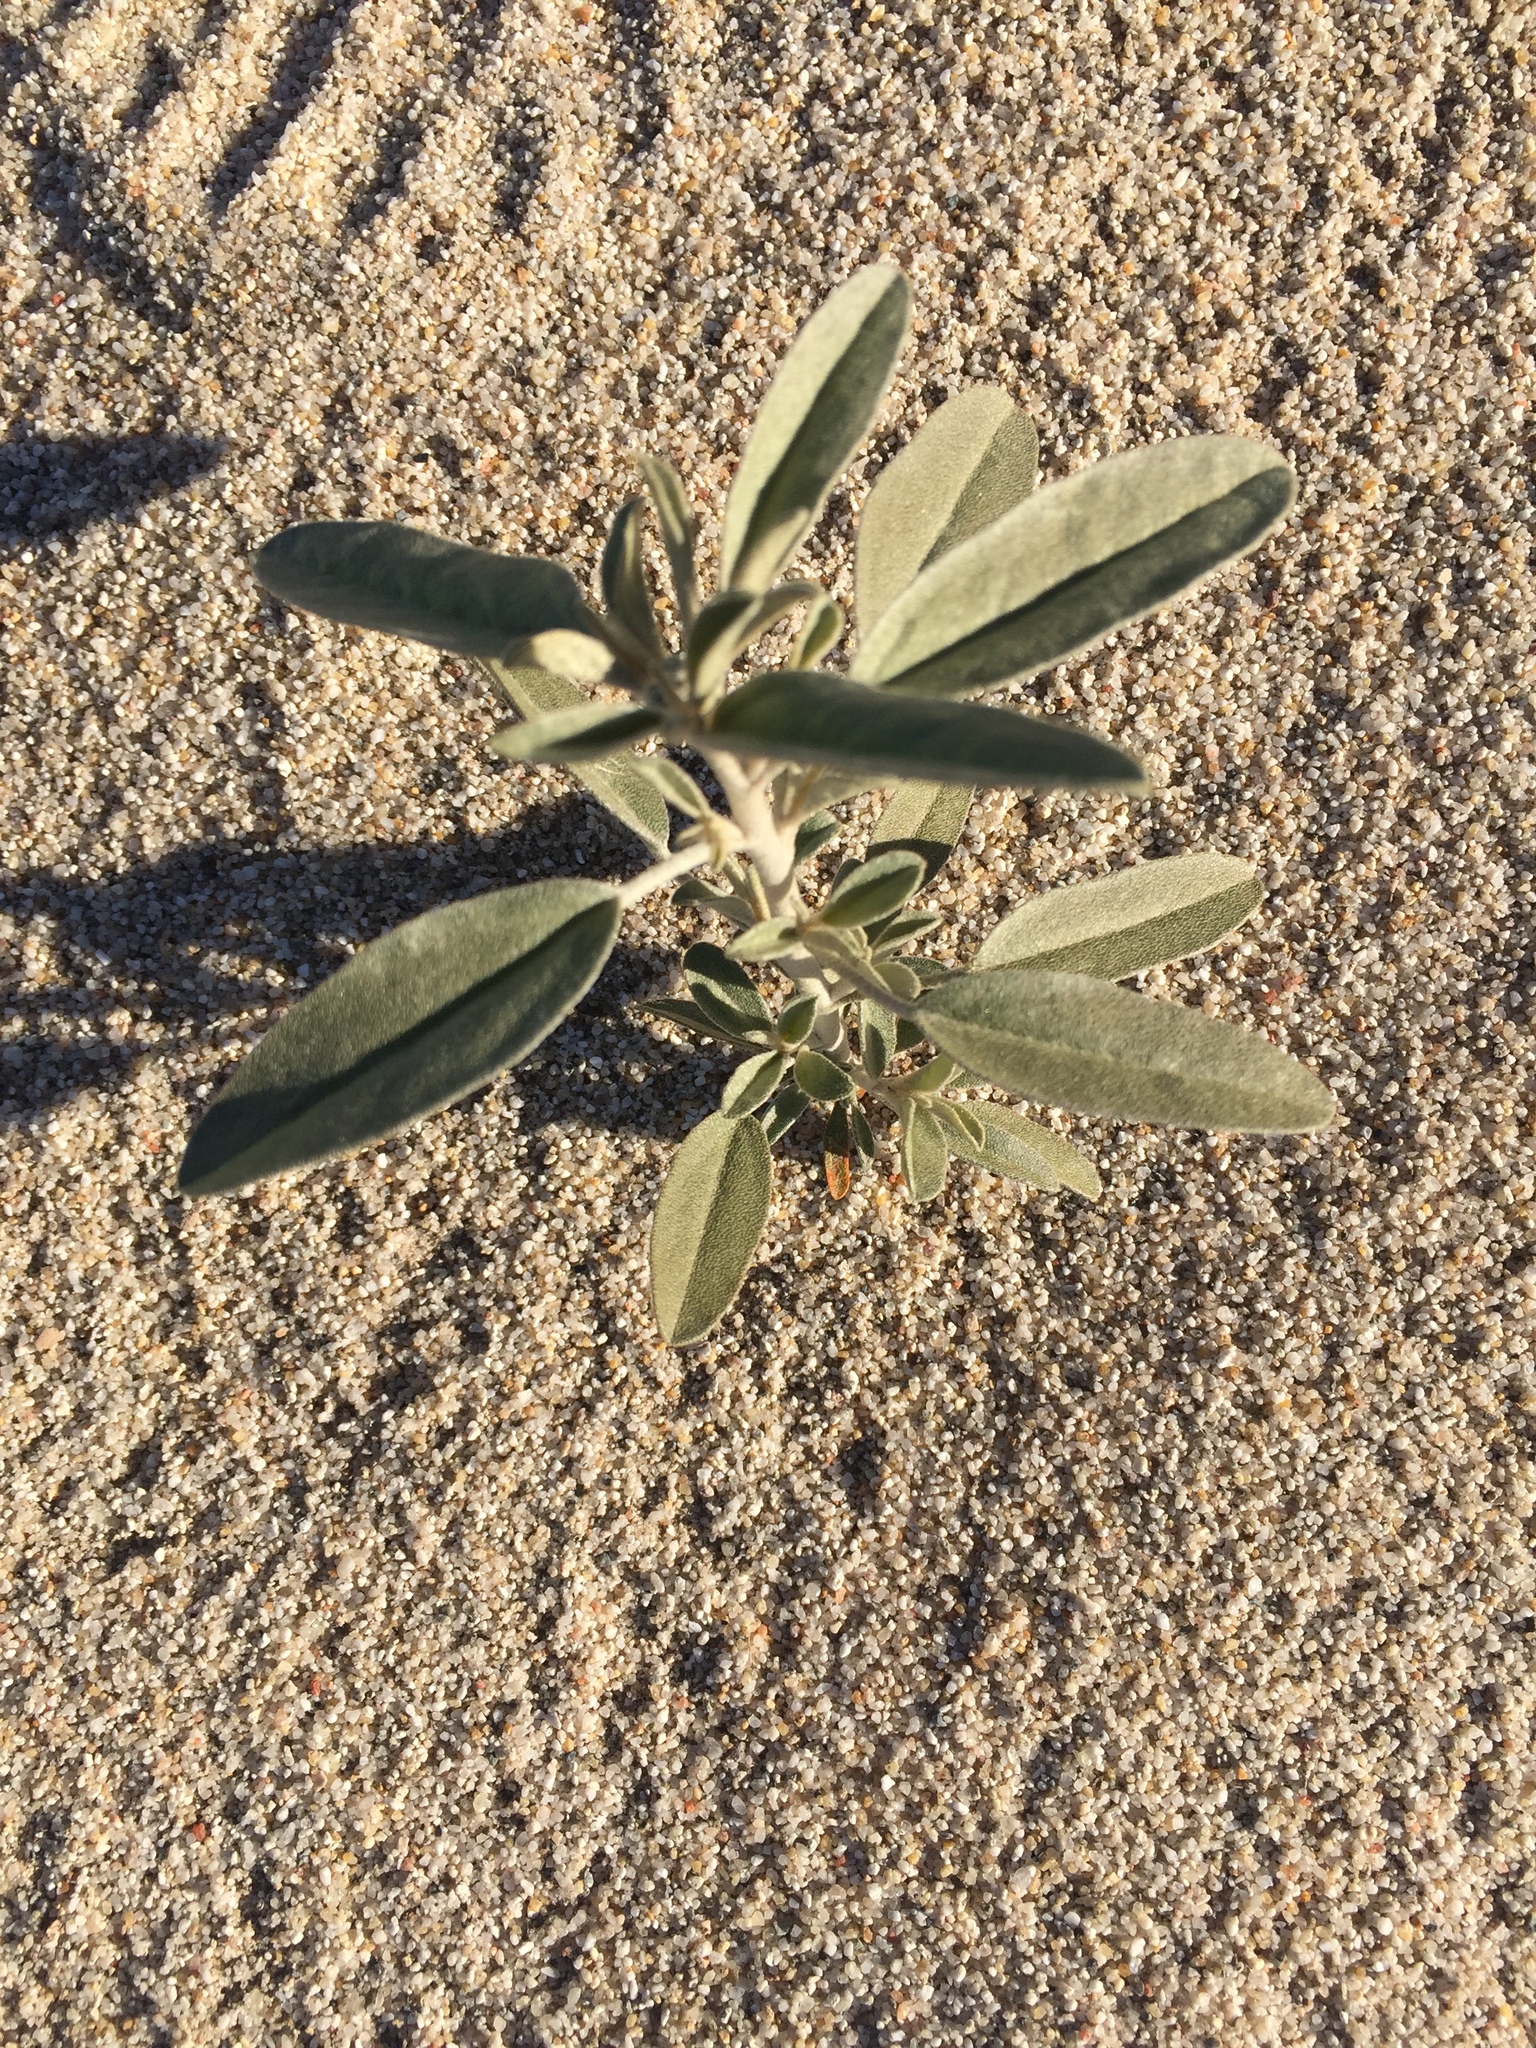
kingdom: Plantae
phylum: Tracheophyta
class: Magnoliopsida
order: Malpighiales
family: Euphorbiaceae
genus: Croton
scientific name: Croton californicus
